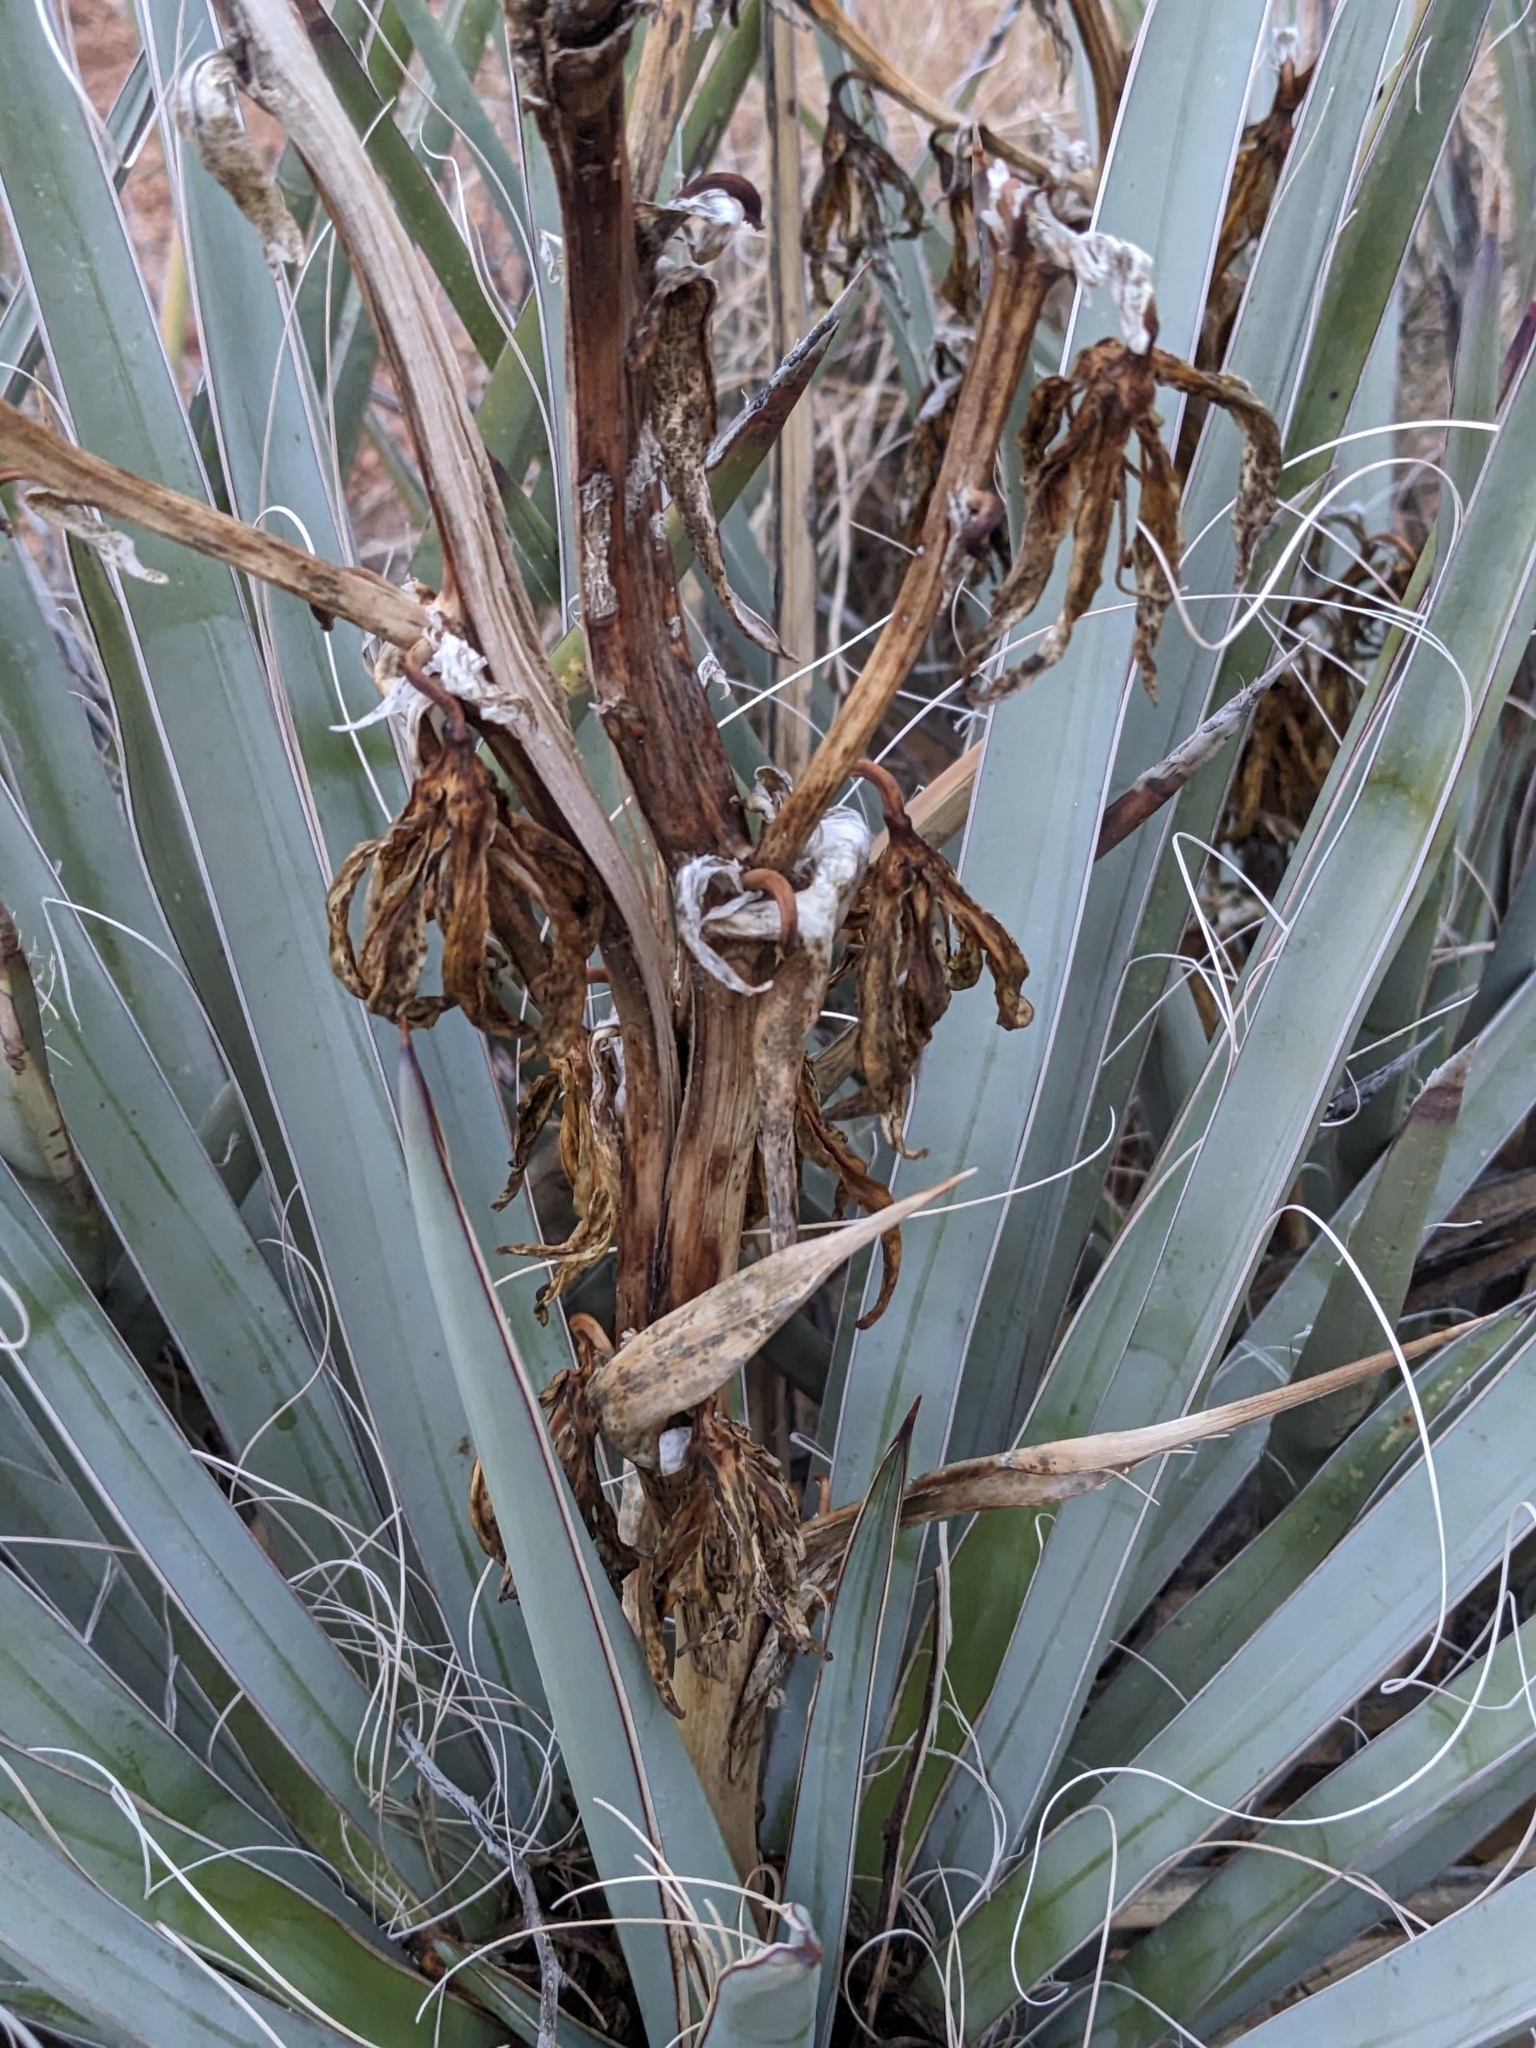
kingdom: Plantae
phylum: Tracheophyta
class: Liliopsida
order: Asparagales
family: Asparagaceae
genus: Yucca
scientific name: Yucca baccata
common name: Banana yucca
